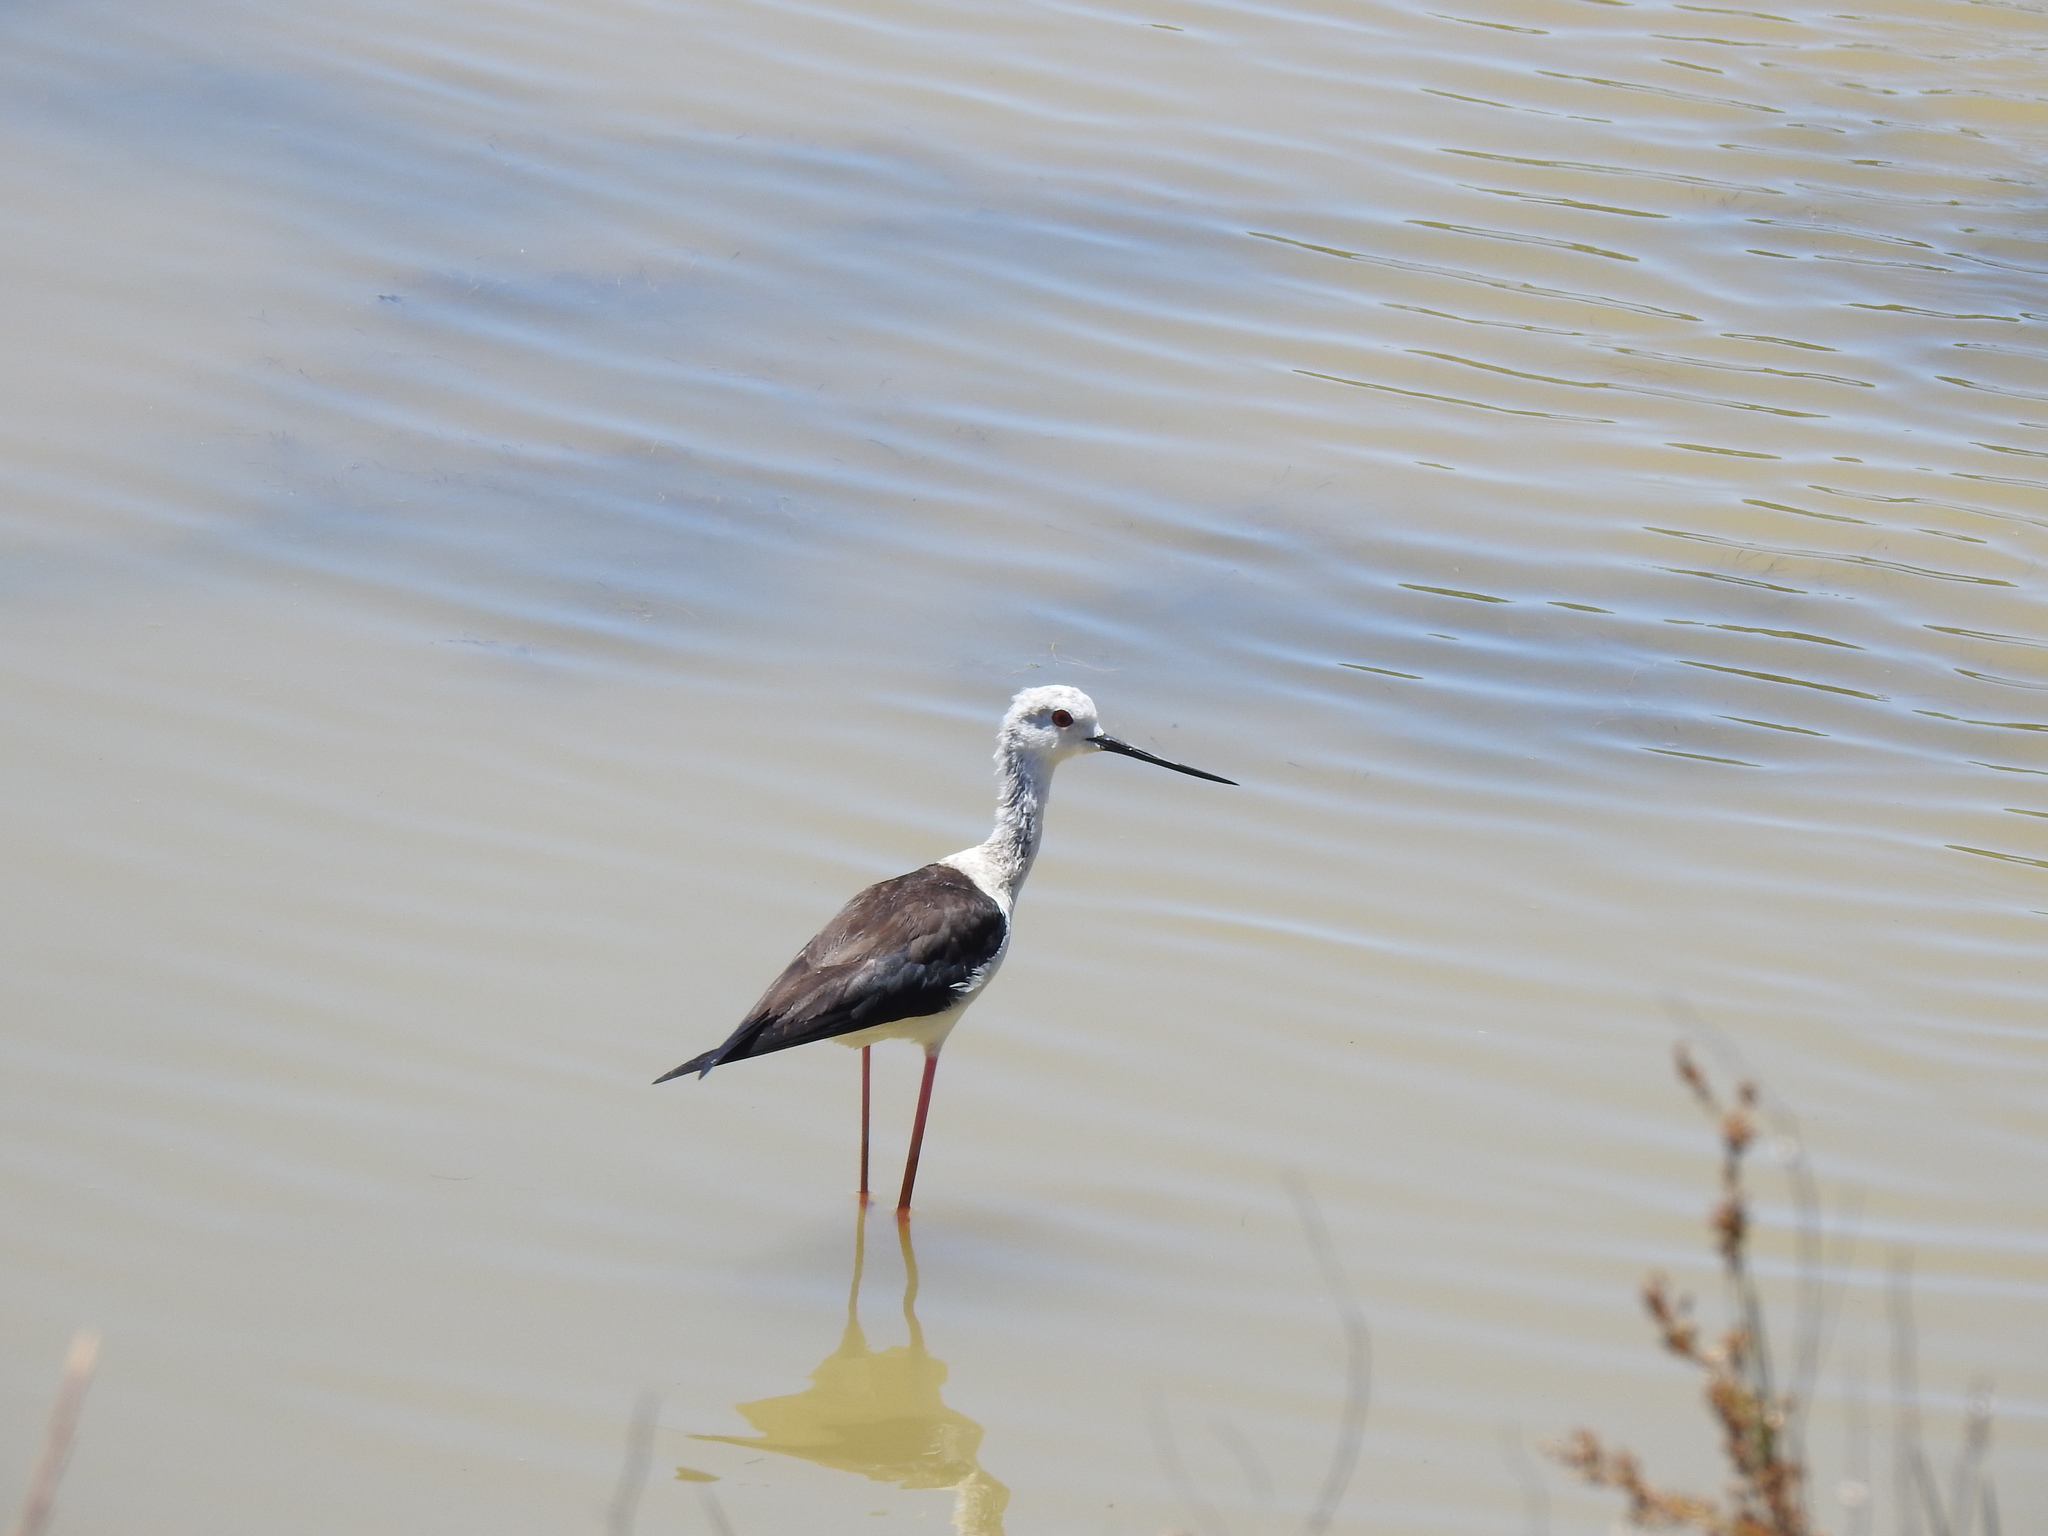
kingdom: Animalia
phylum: Chordata
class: Aves
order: Charadriiformes
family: Recurvirostridae
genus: Himantopus
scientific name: Himantopus himantopus
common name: Black-winged stilt
